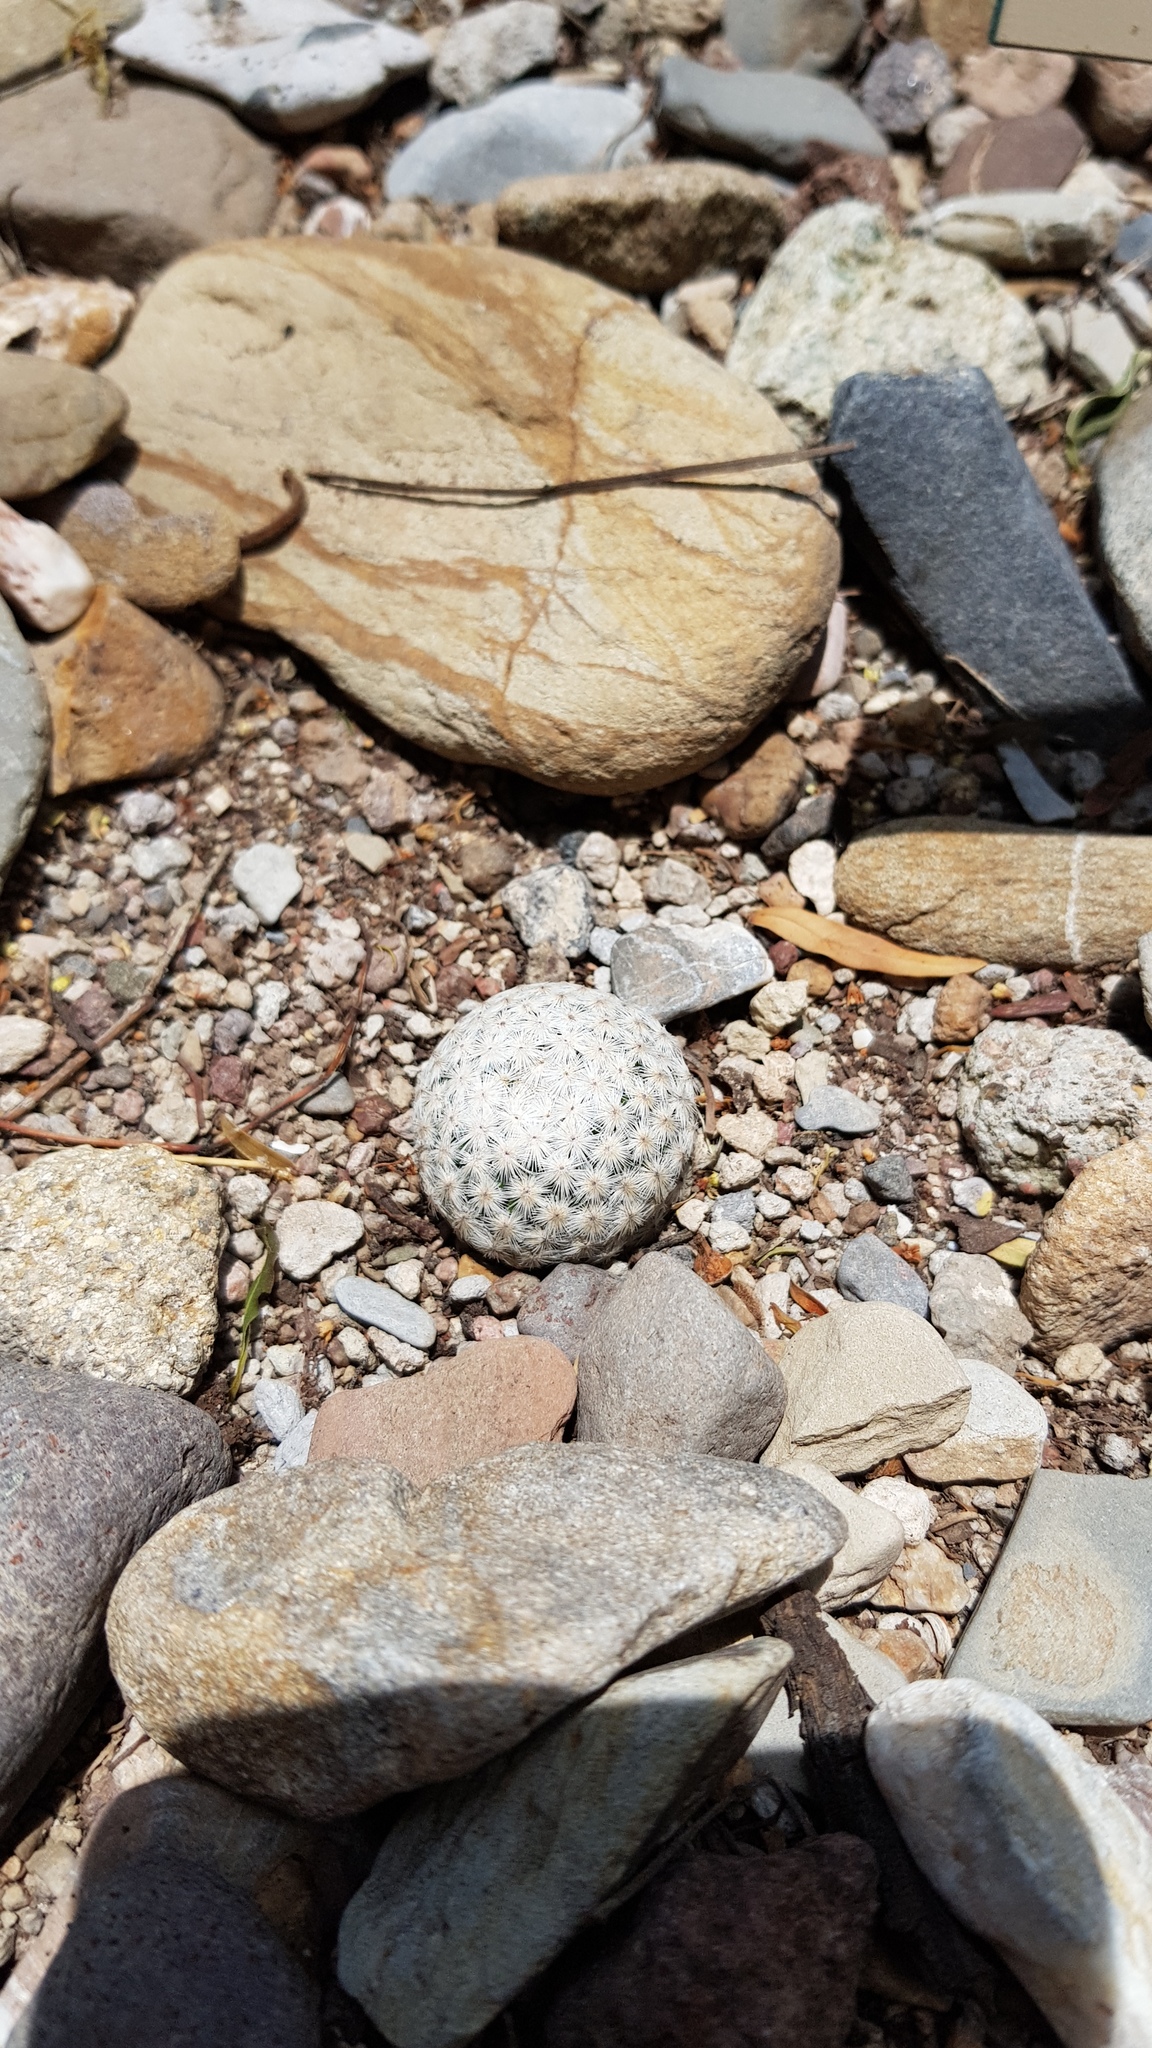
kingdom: Plantae
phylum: Tracheophyta
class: Magnoliopsida
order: Caryophyllales
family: Cactaceae
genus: Mammillaria
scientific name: Mammillaria herrerae
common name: Golf ball
